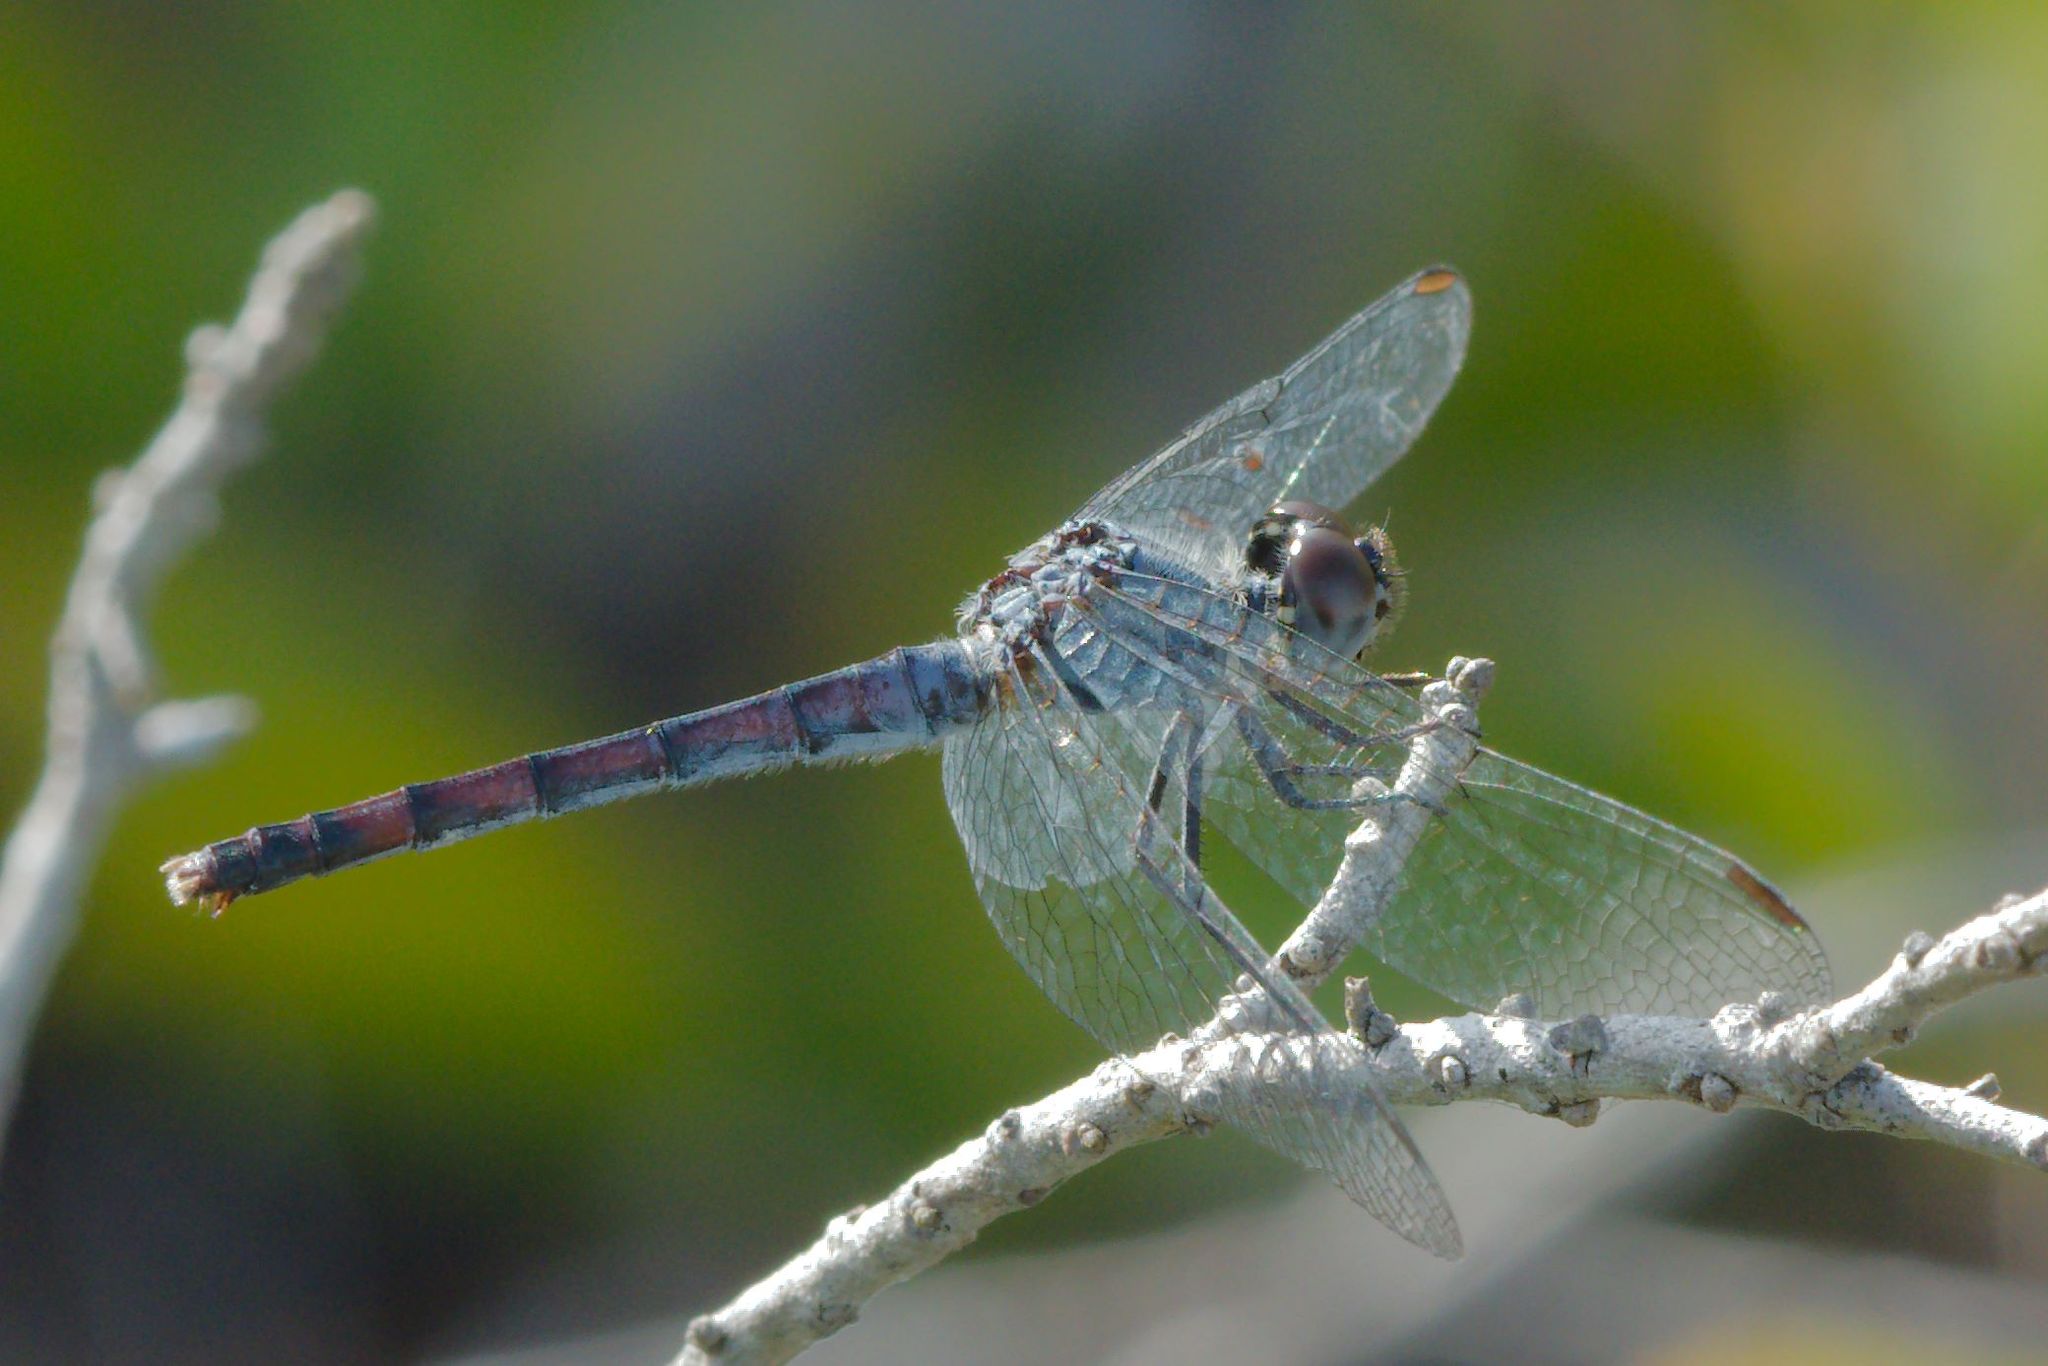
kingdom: Animalia
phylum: Arthropoda
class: Insecta
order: Odonata
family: Libellulidae
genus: Erythrodiplax
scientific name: Erythrodiplax berenice
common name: Seaside dragonlet
